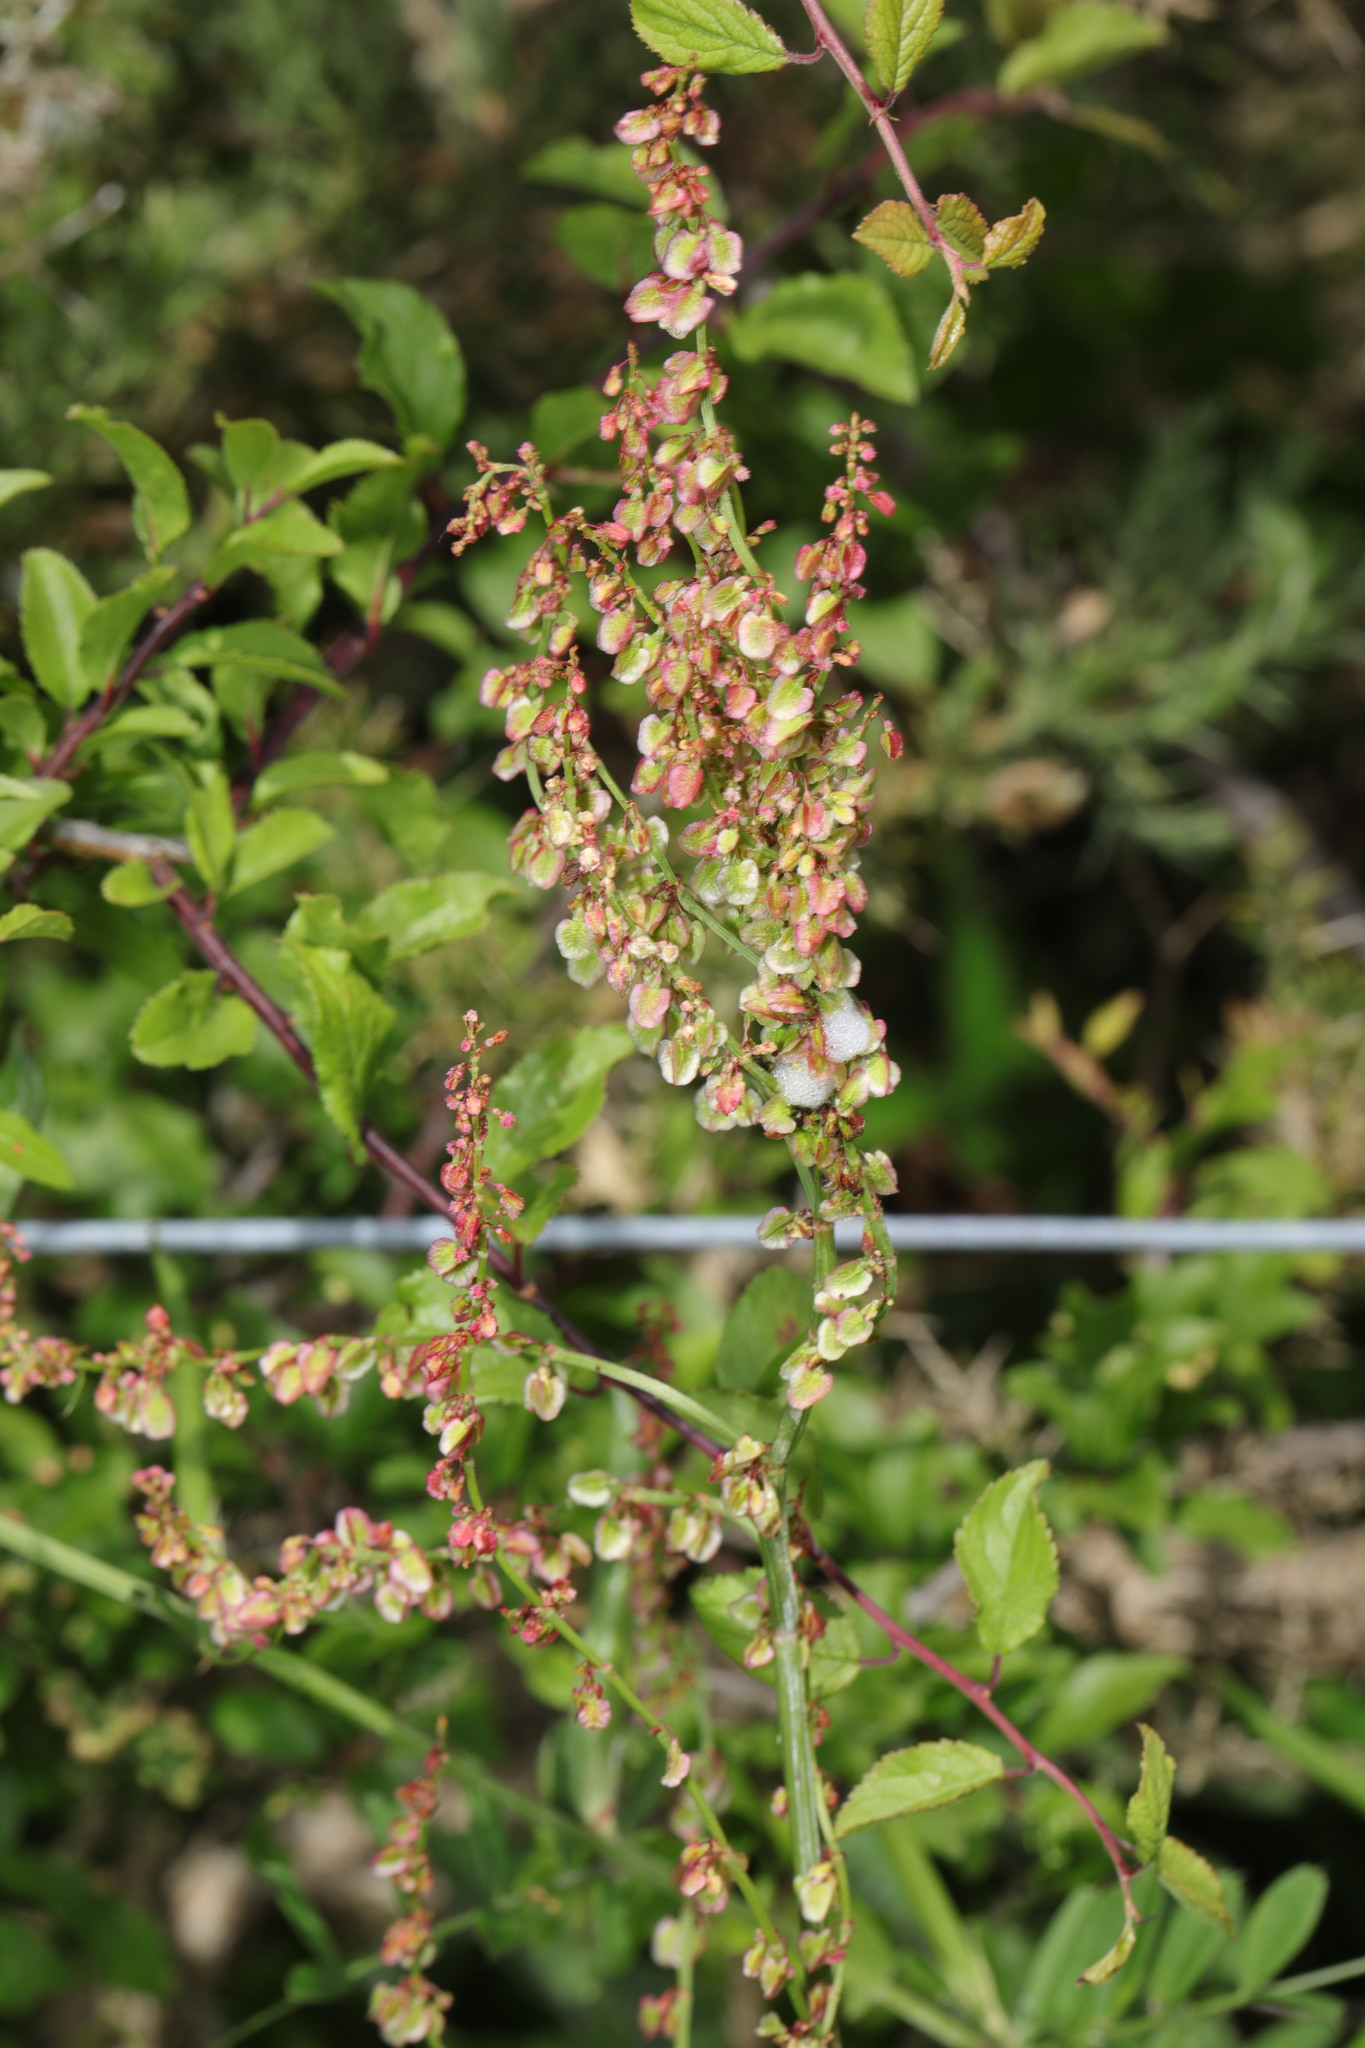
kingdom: Plantae
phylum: Tracheophyta
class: Magnoliopsida
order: Caryophyllales
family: Polygonaceae
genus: Rumex
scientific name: Rumex acetosa
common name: Garden sorrel
